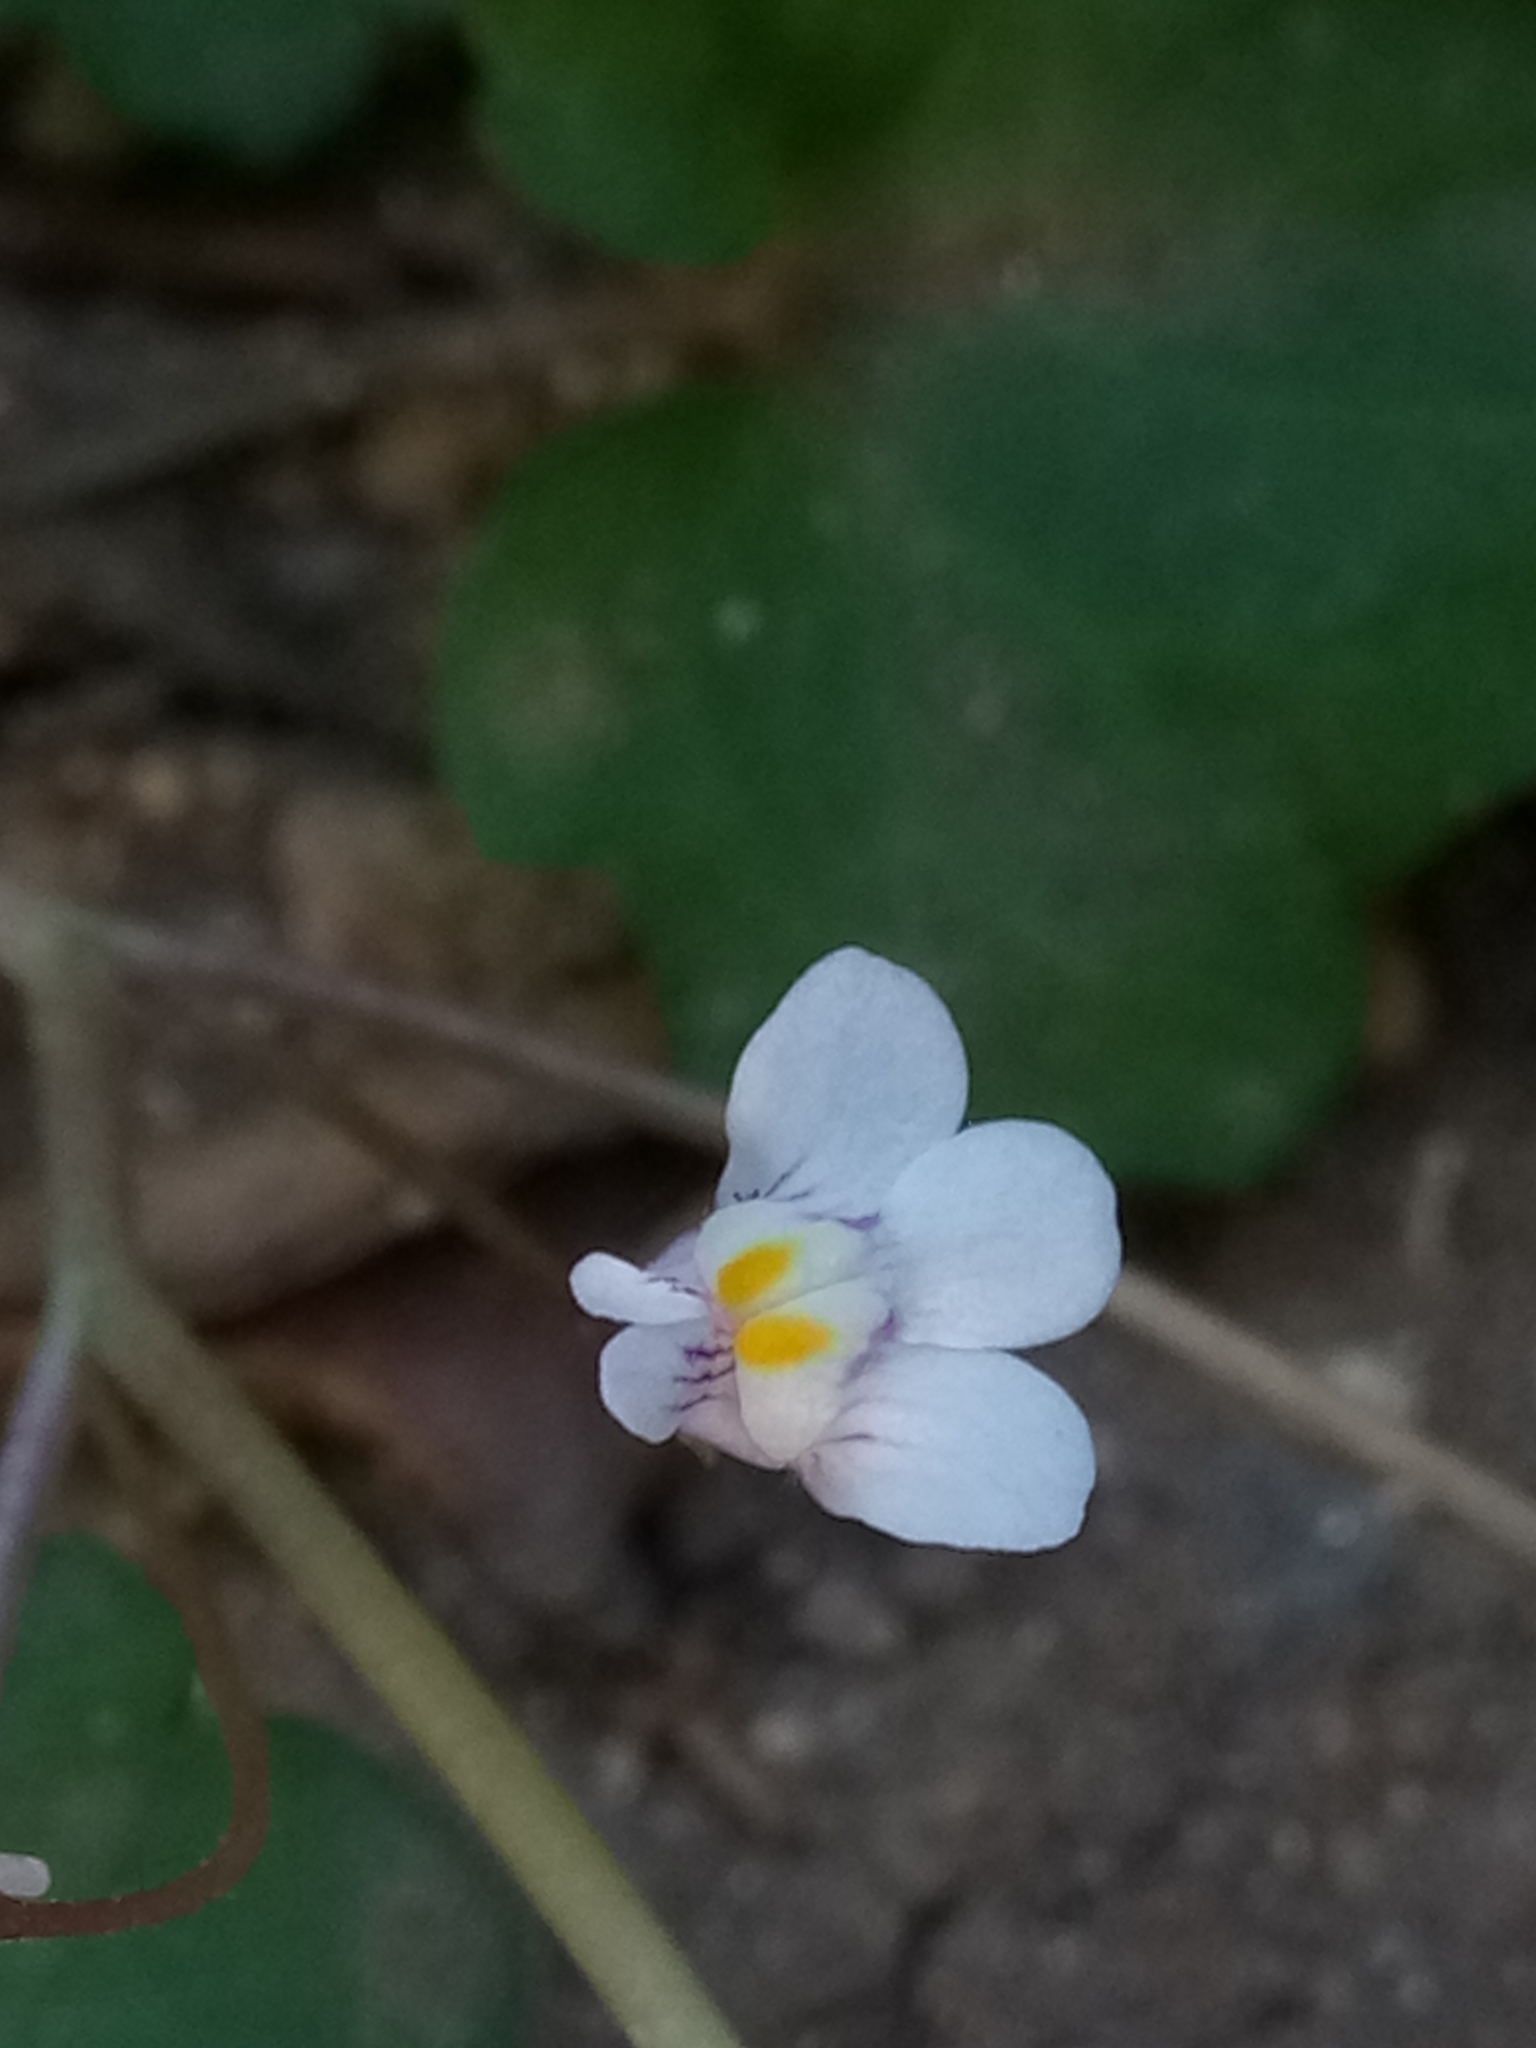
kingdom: Plantae
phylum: Tracheophyta
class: Magnoliopsida
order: Lamiales
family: Plantaginaceae
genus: Cymbalaria
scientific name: Cymbalaria muralis
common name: Ivy-leaved toadflax
